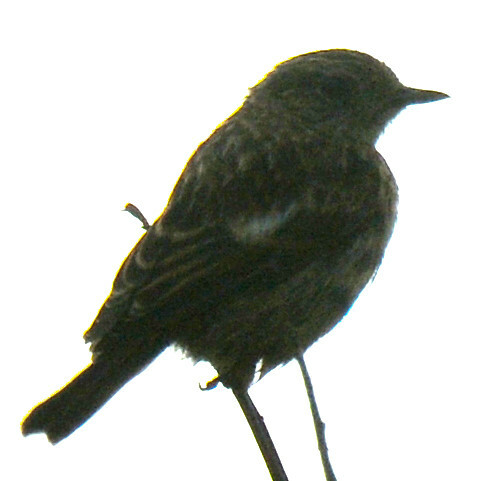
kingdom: Animalia
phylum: Chordata
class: Aves
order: Passeriformes
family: Muscicapidae
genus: Saxicola
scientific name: Saxicola rubicola
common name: European stonechat
